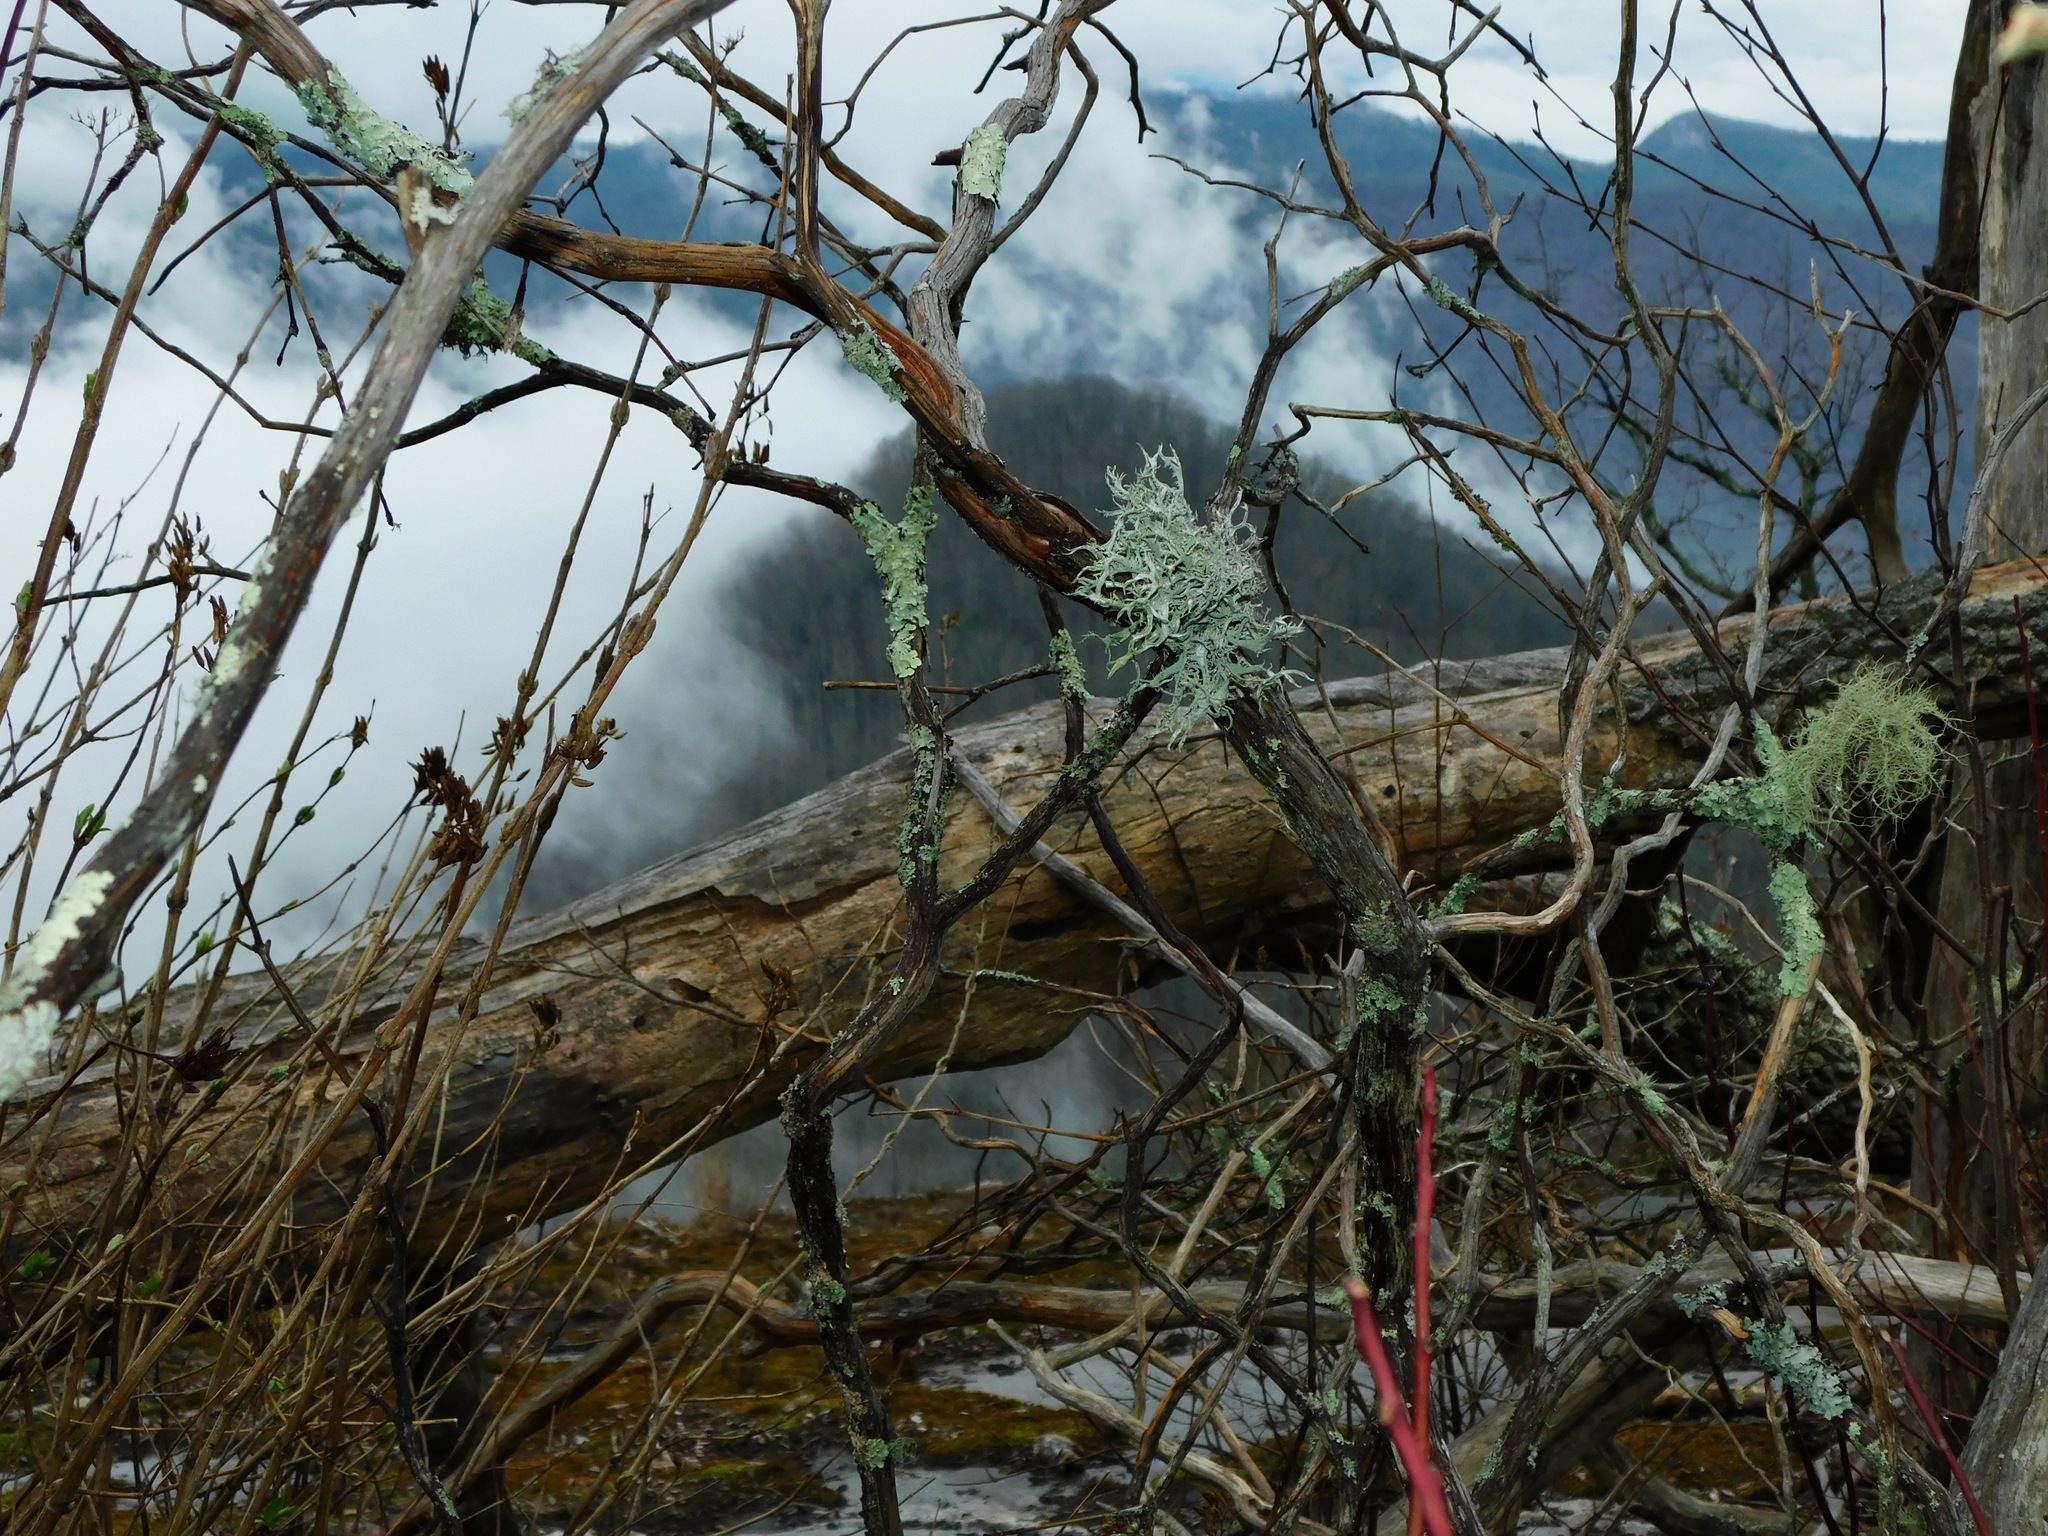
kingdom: Fungi
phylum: Ascomycota
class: Lecanoromycetes
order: Lecanorales
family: Parmeliaceae
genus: Pseudevernia
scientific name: Pseudevernia consocians
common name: Common antler lichen
